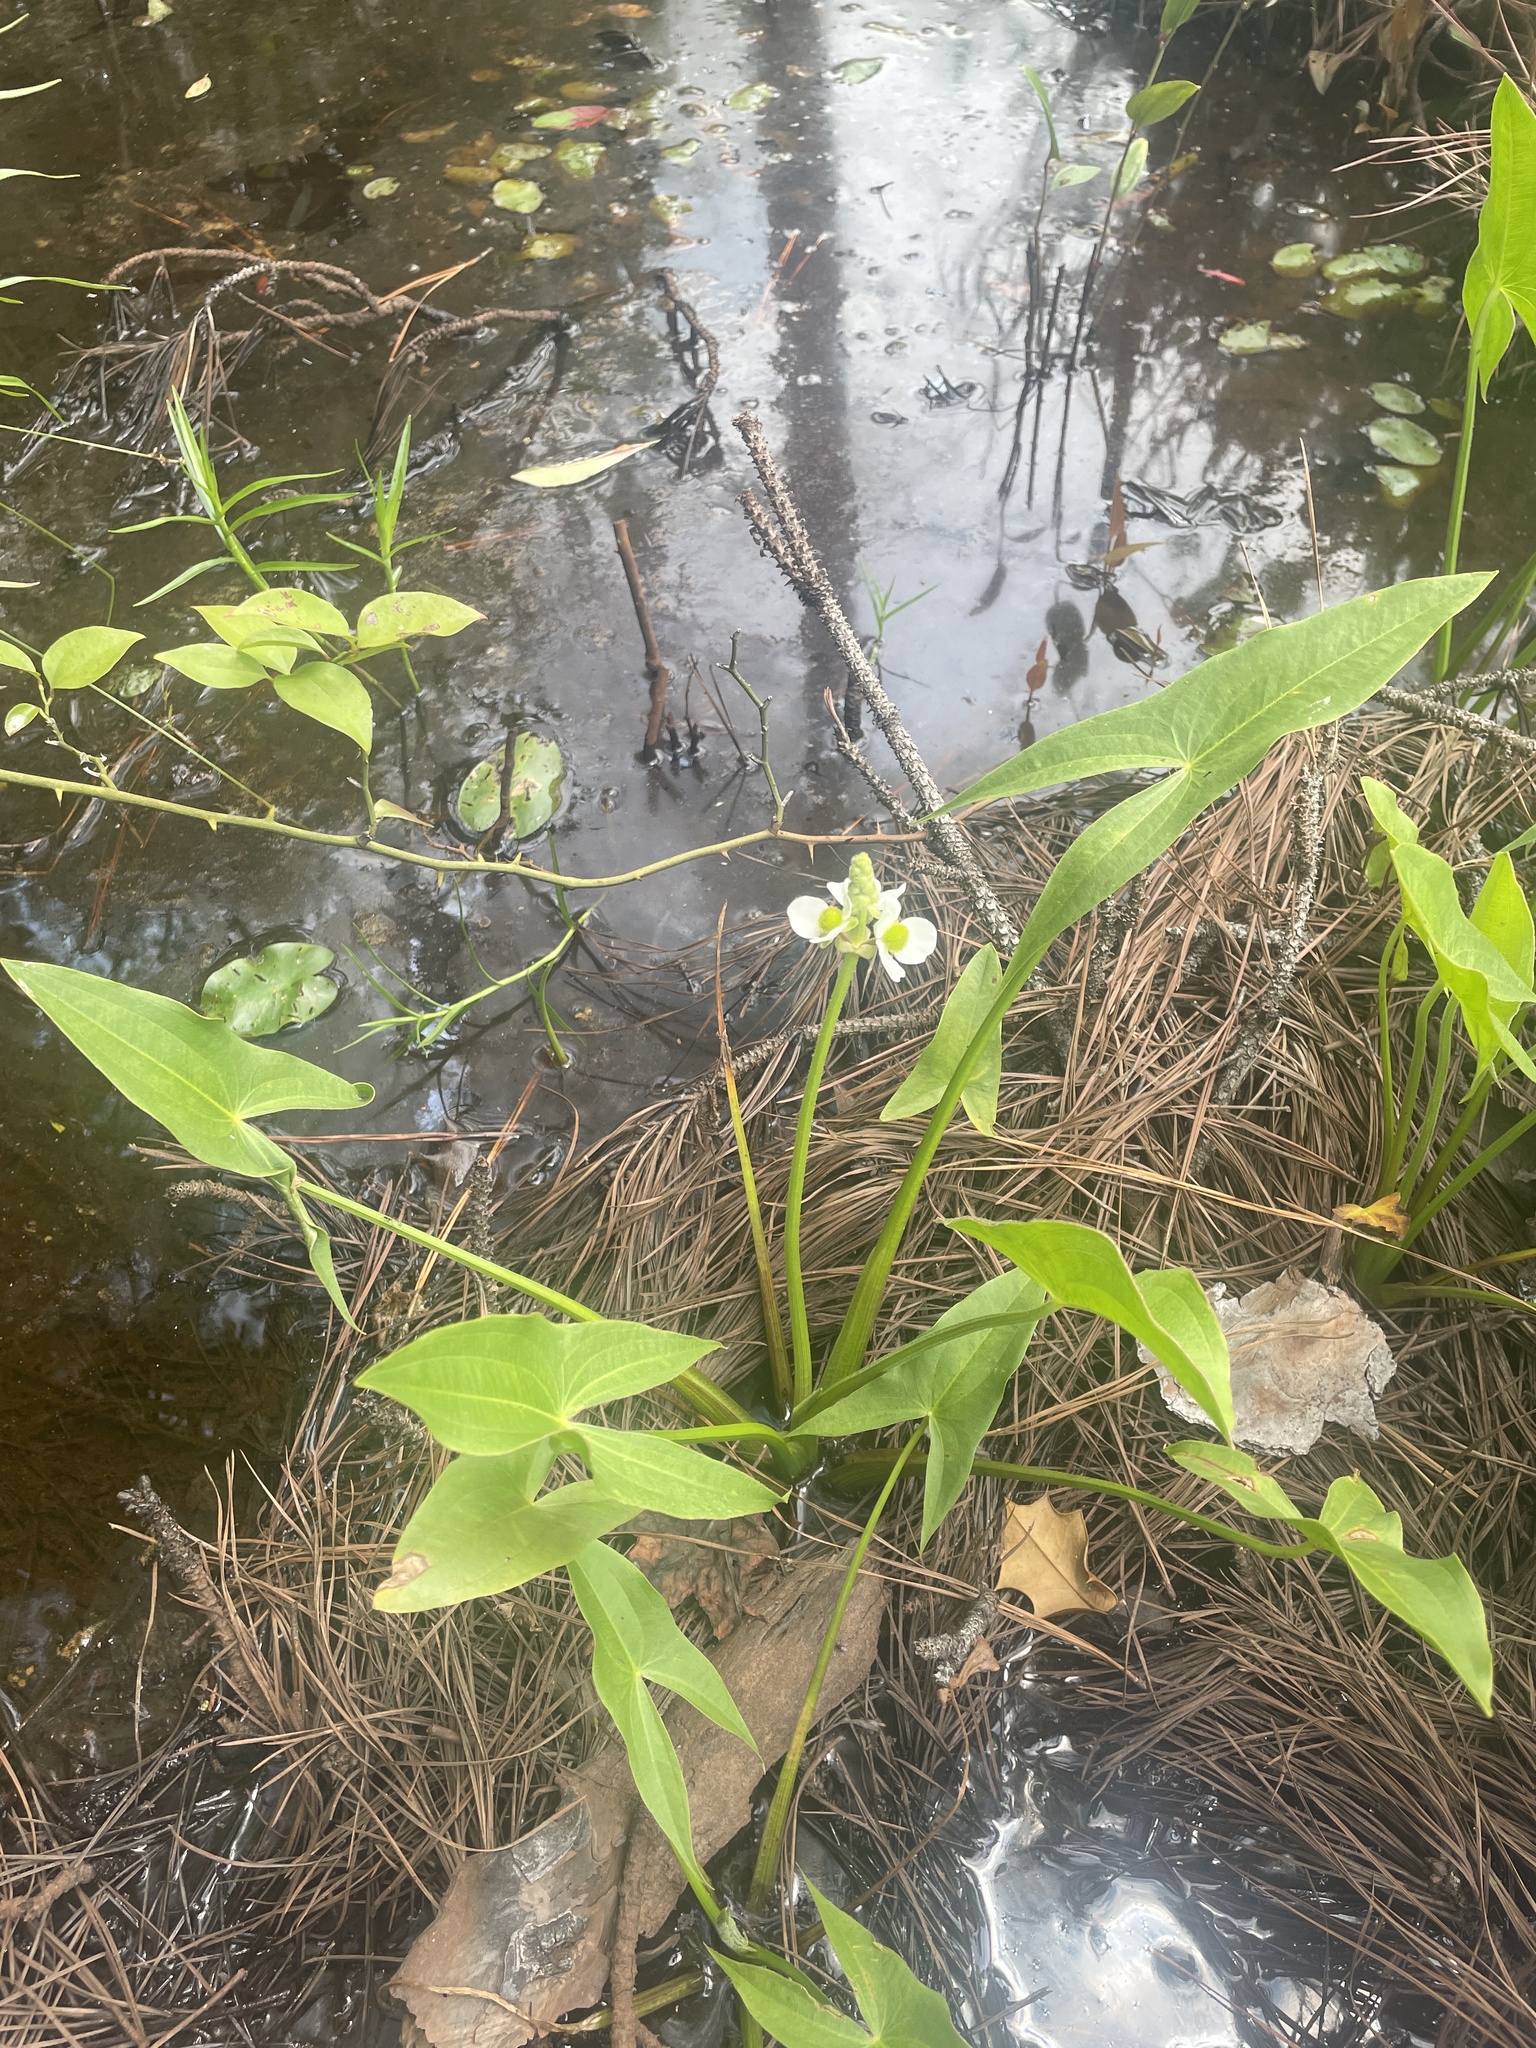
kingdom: Plantae
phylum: Tracheophyta
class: Liliopsida
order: Alismatales
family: Alismataceae
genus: Sagittaria
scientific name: Sagittaria latifolia
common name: Duck-potato
